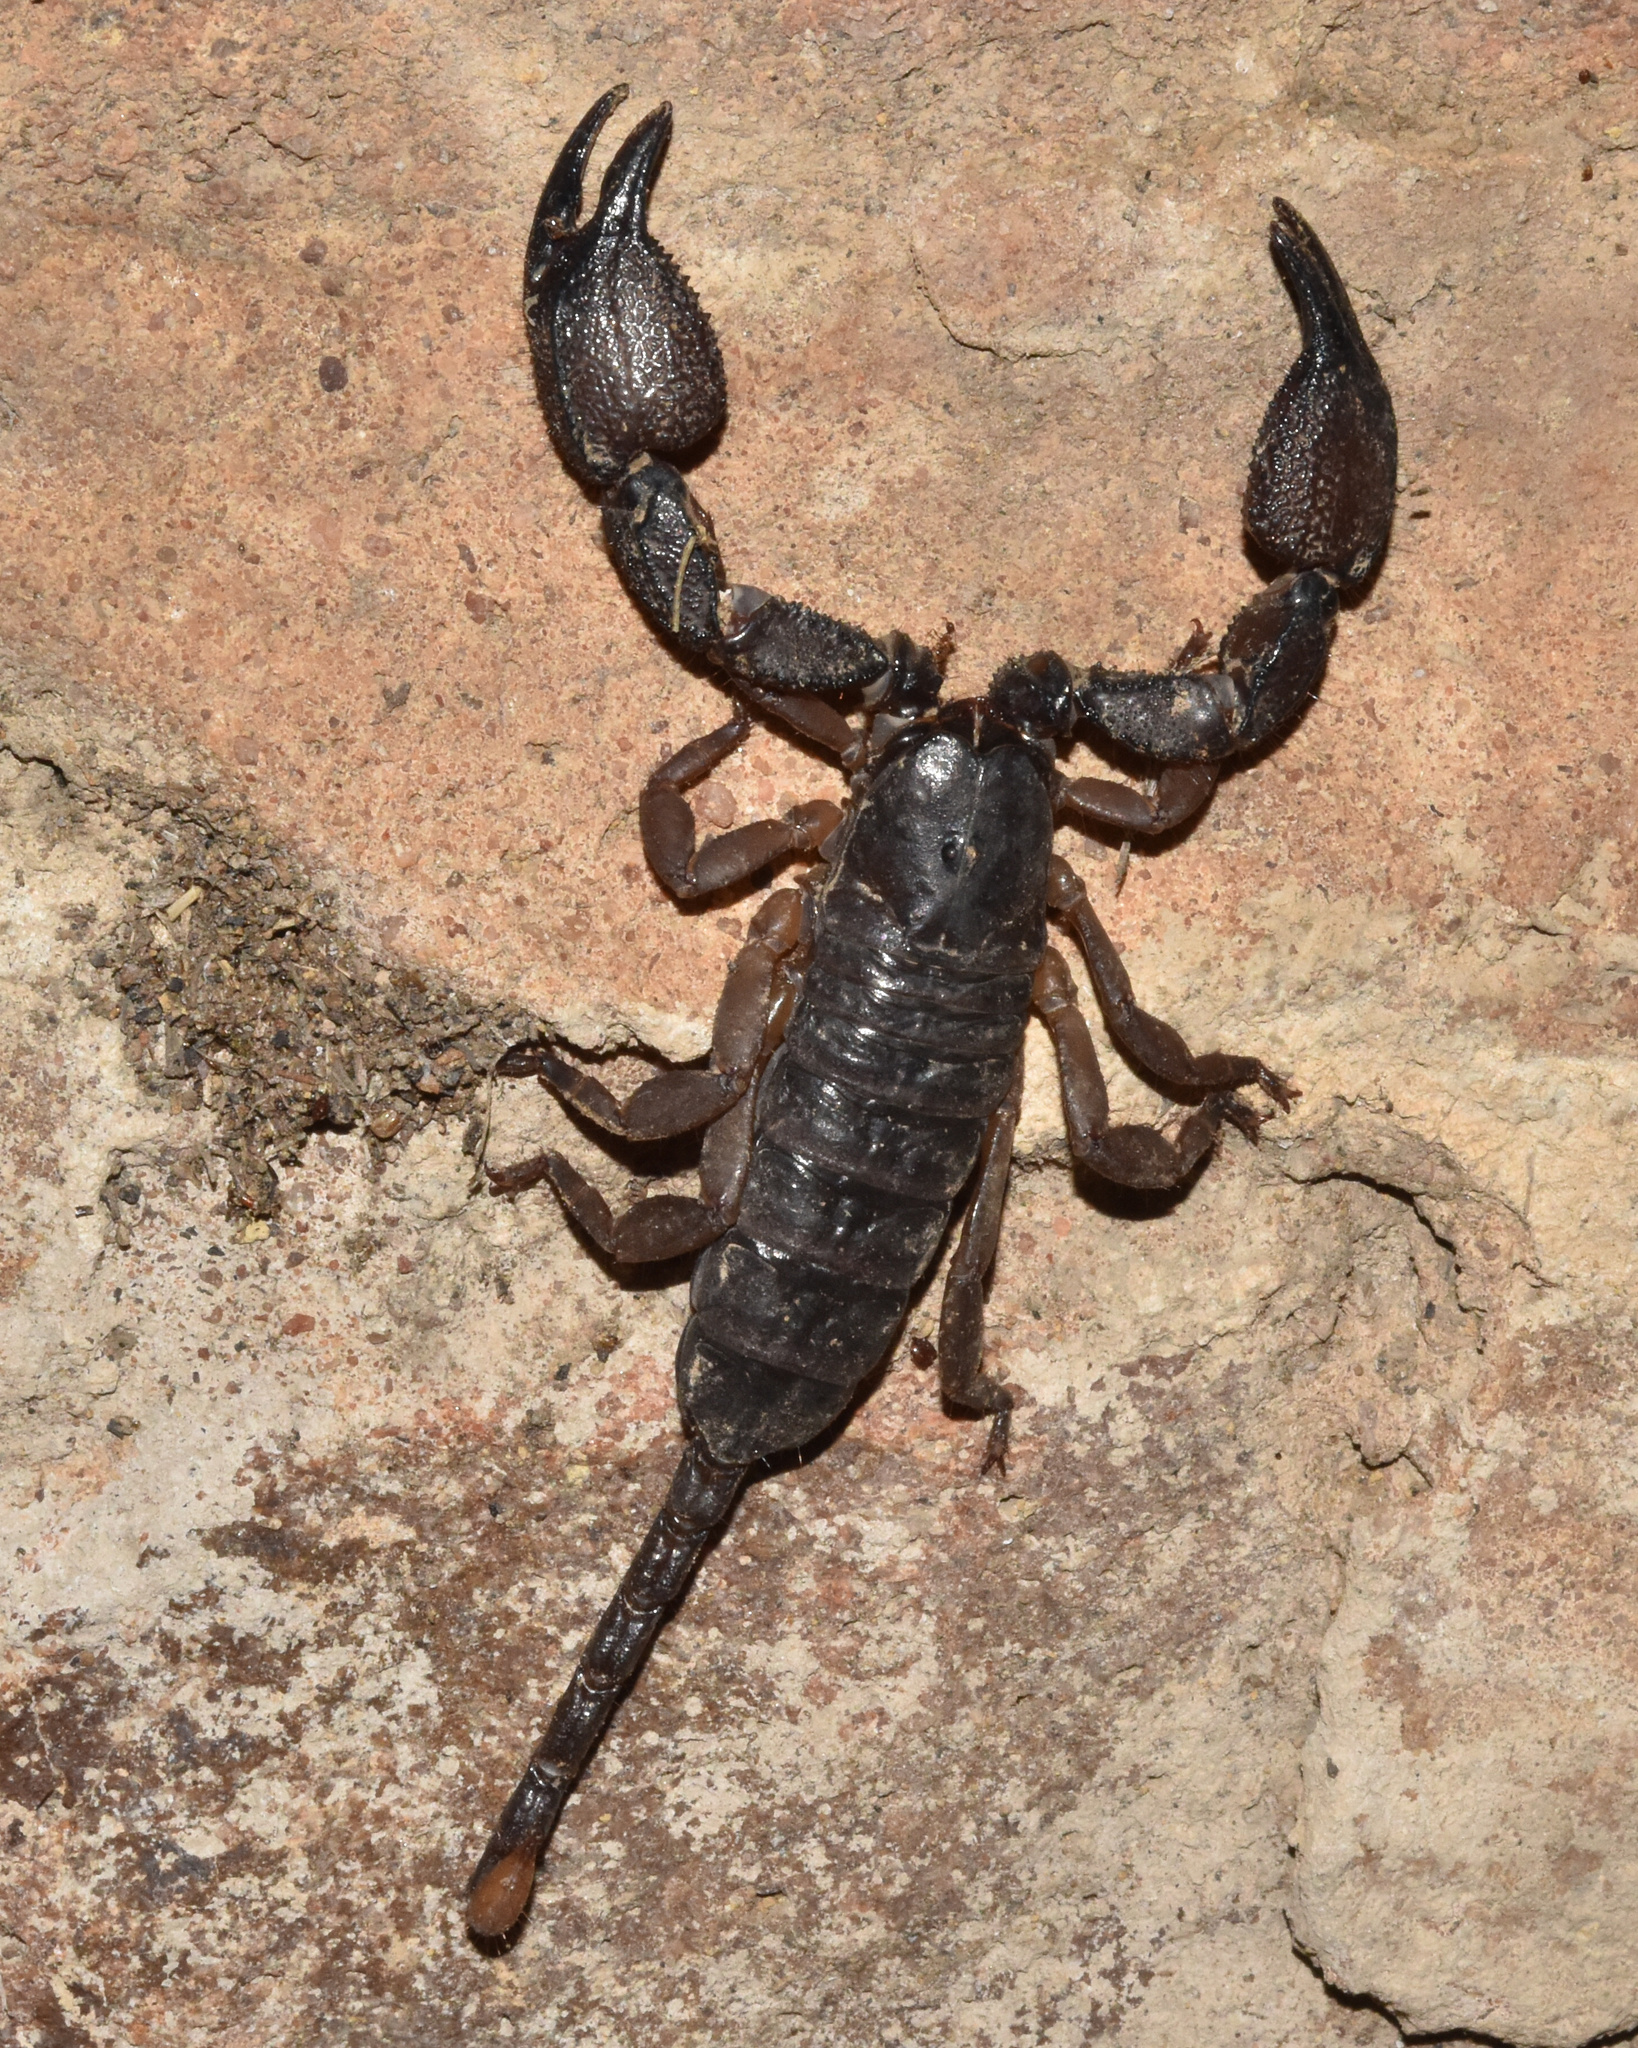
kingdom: Animalia
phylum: Arthropoda
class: Arachnida
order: Scorpiones
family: Hormuridae
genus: Cheloctonus
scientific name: Cheloctonus jonesii
